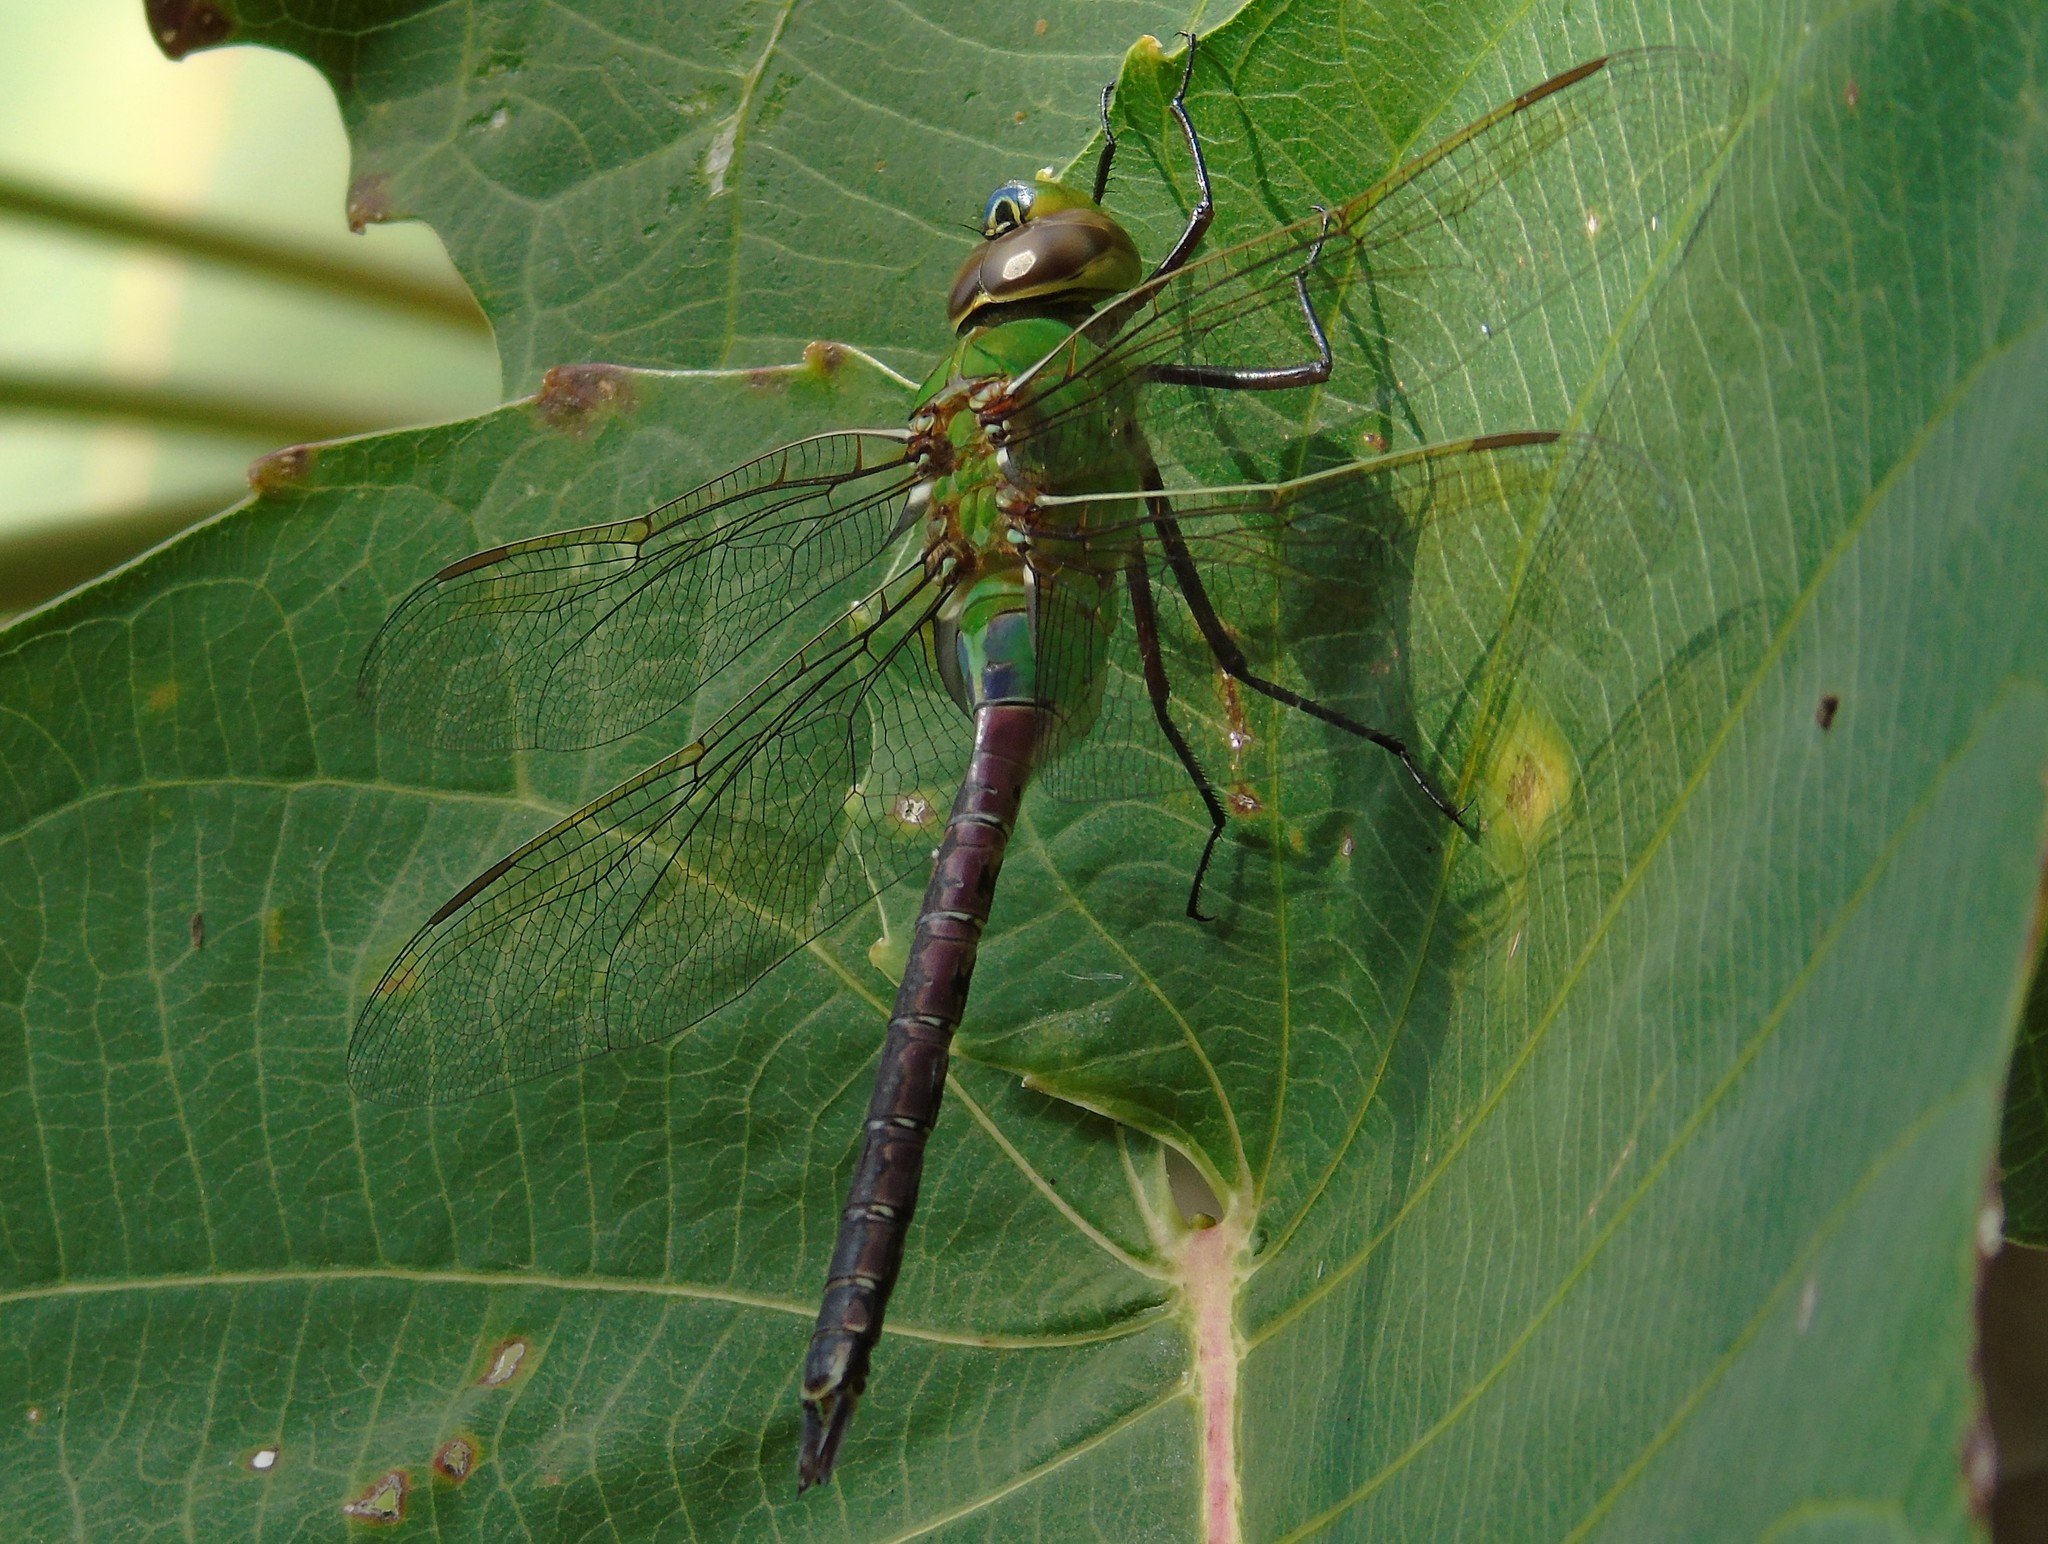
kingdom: Animalia
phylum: Arthropoda
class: Insecta
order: Odonata
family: Aeshnidae
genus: Anax
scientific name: Anax junius
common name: Common green darner
